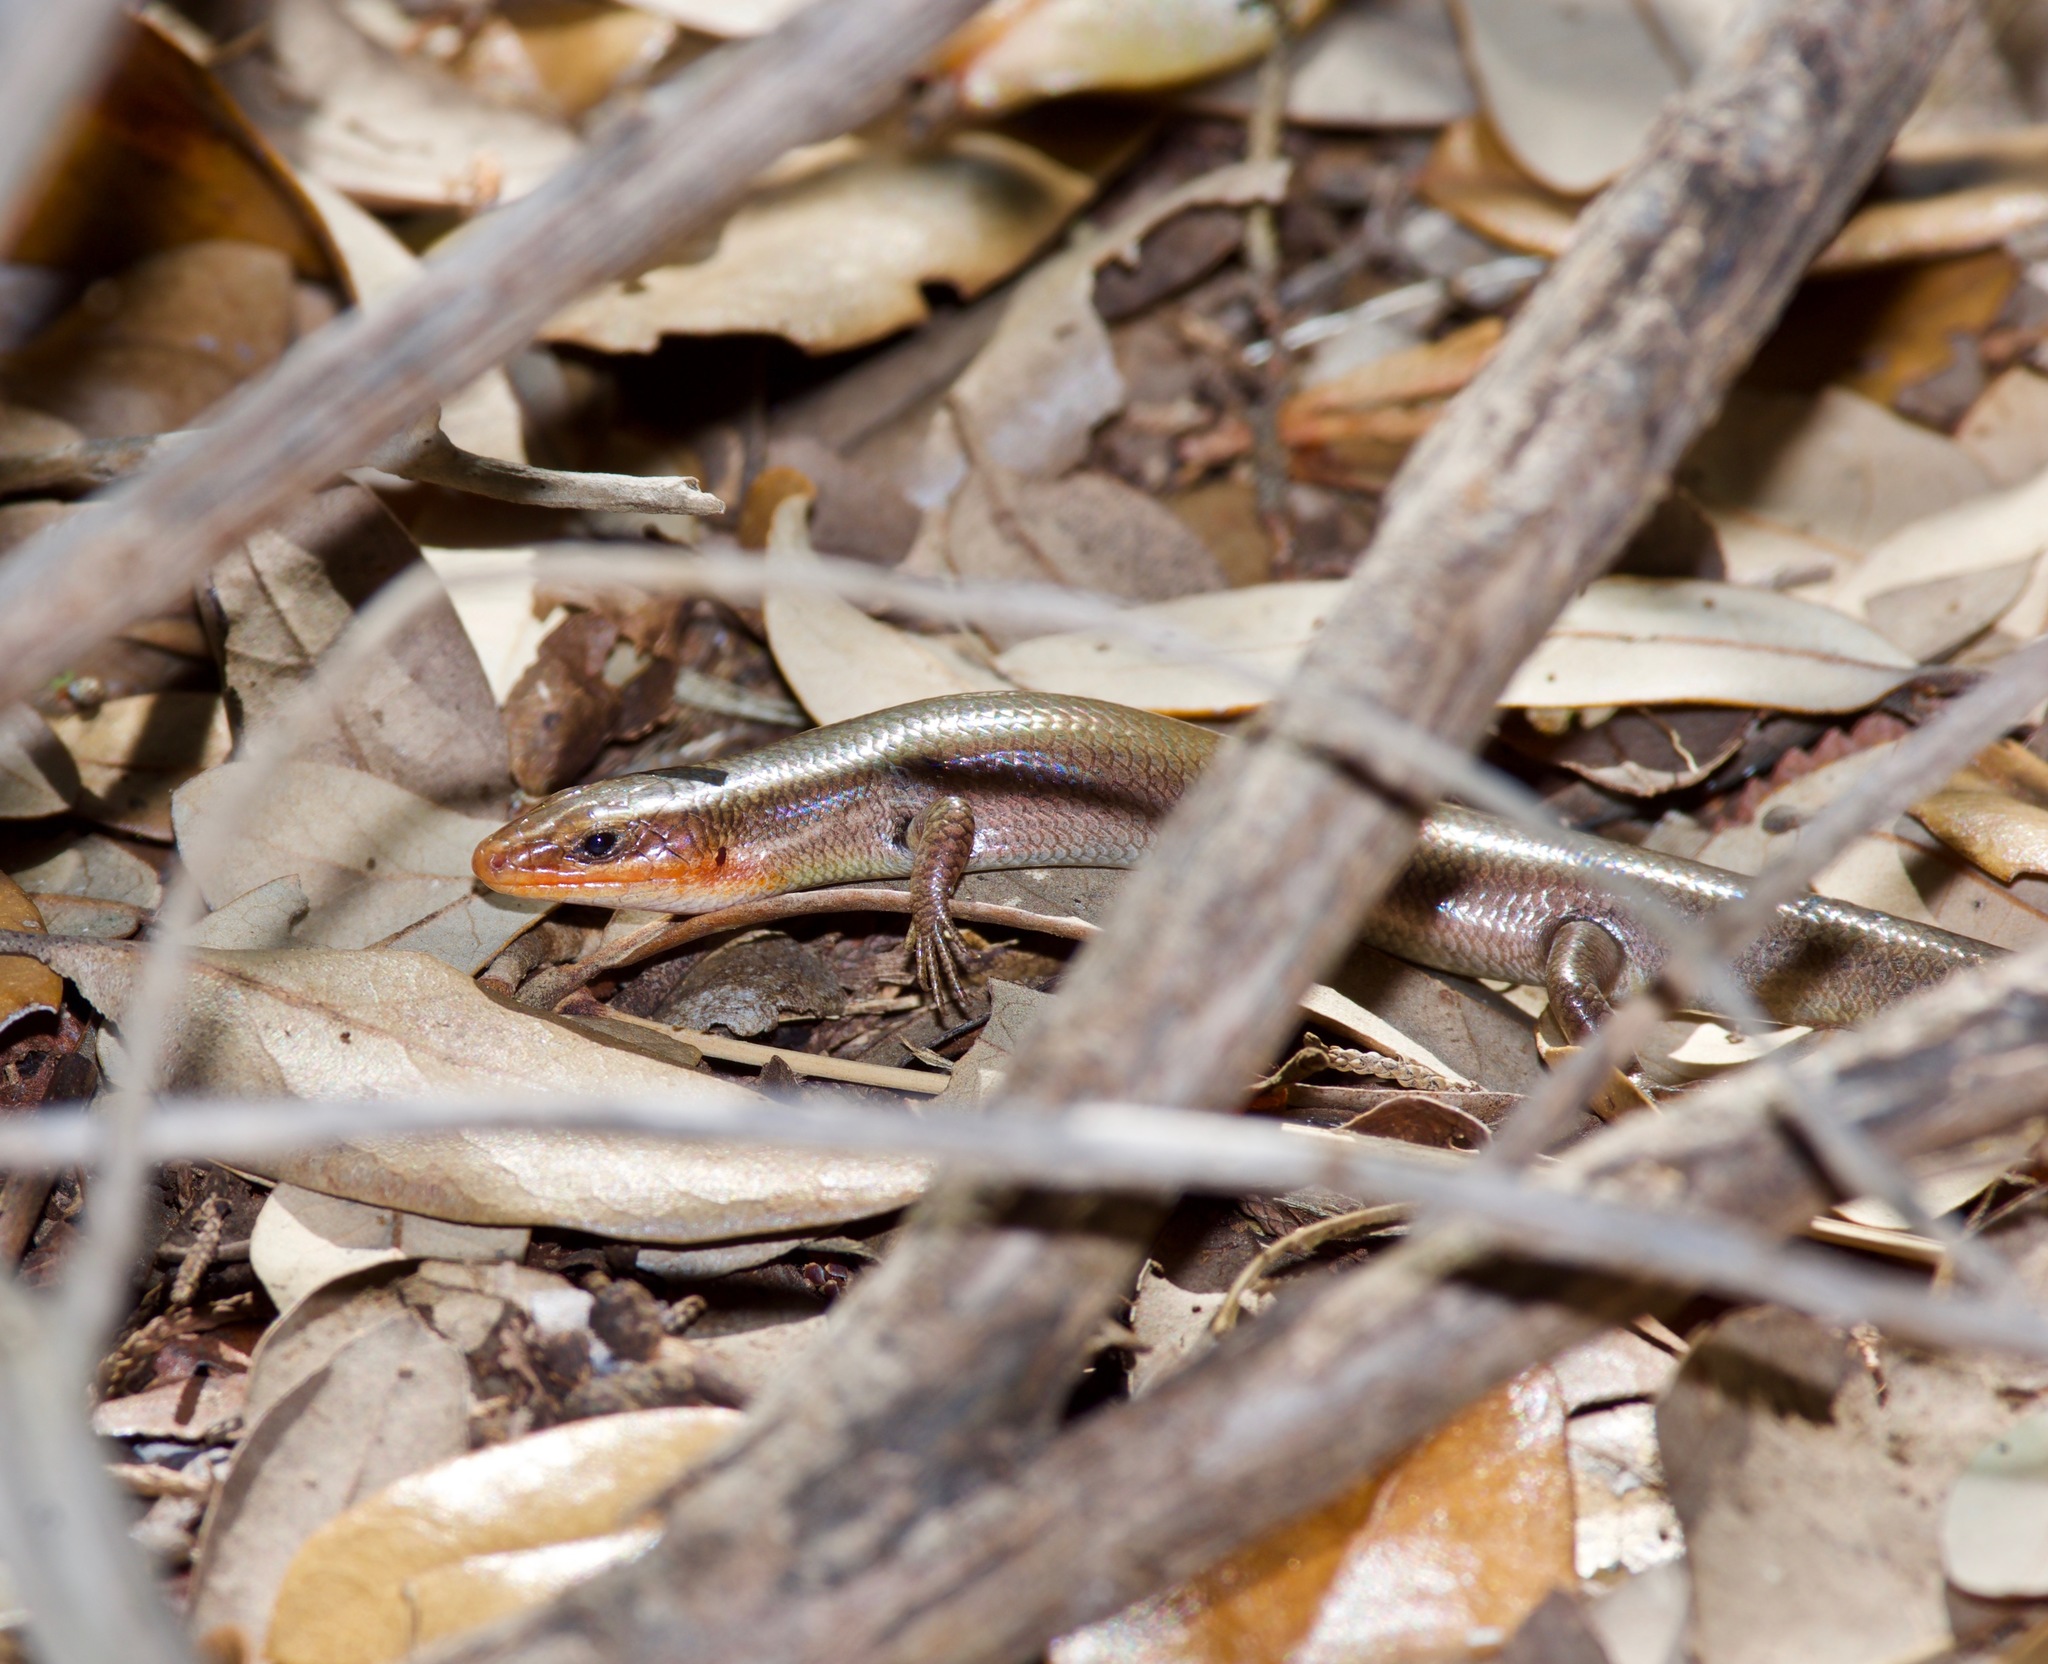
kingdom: Animalia
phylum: Chordata
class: Squamata
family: Scincidae
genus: Plestiodon
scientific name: Plestiodon tetragrammus
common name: Four-lined skink
